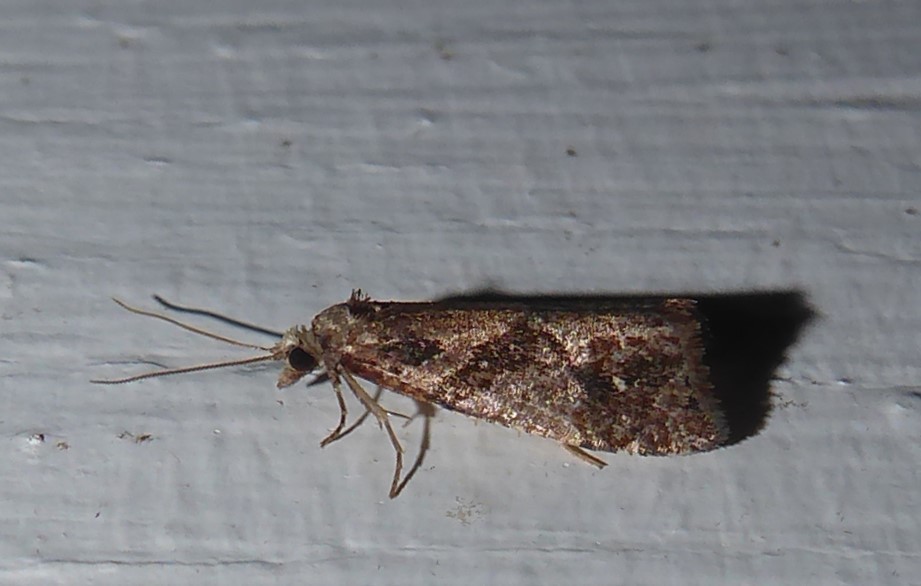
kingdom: Animalia
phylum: Arthropoda
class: Insecta
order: Lepidoptera
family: Tortricidae
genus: Pyrgotis
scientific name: Pyrgotis plagiatana
